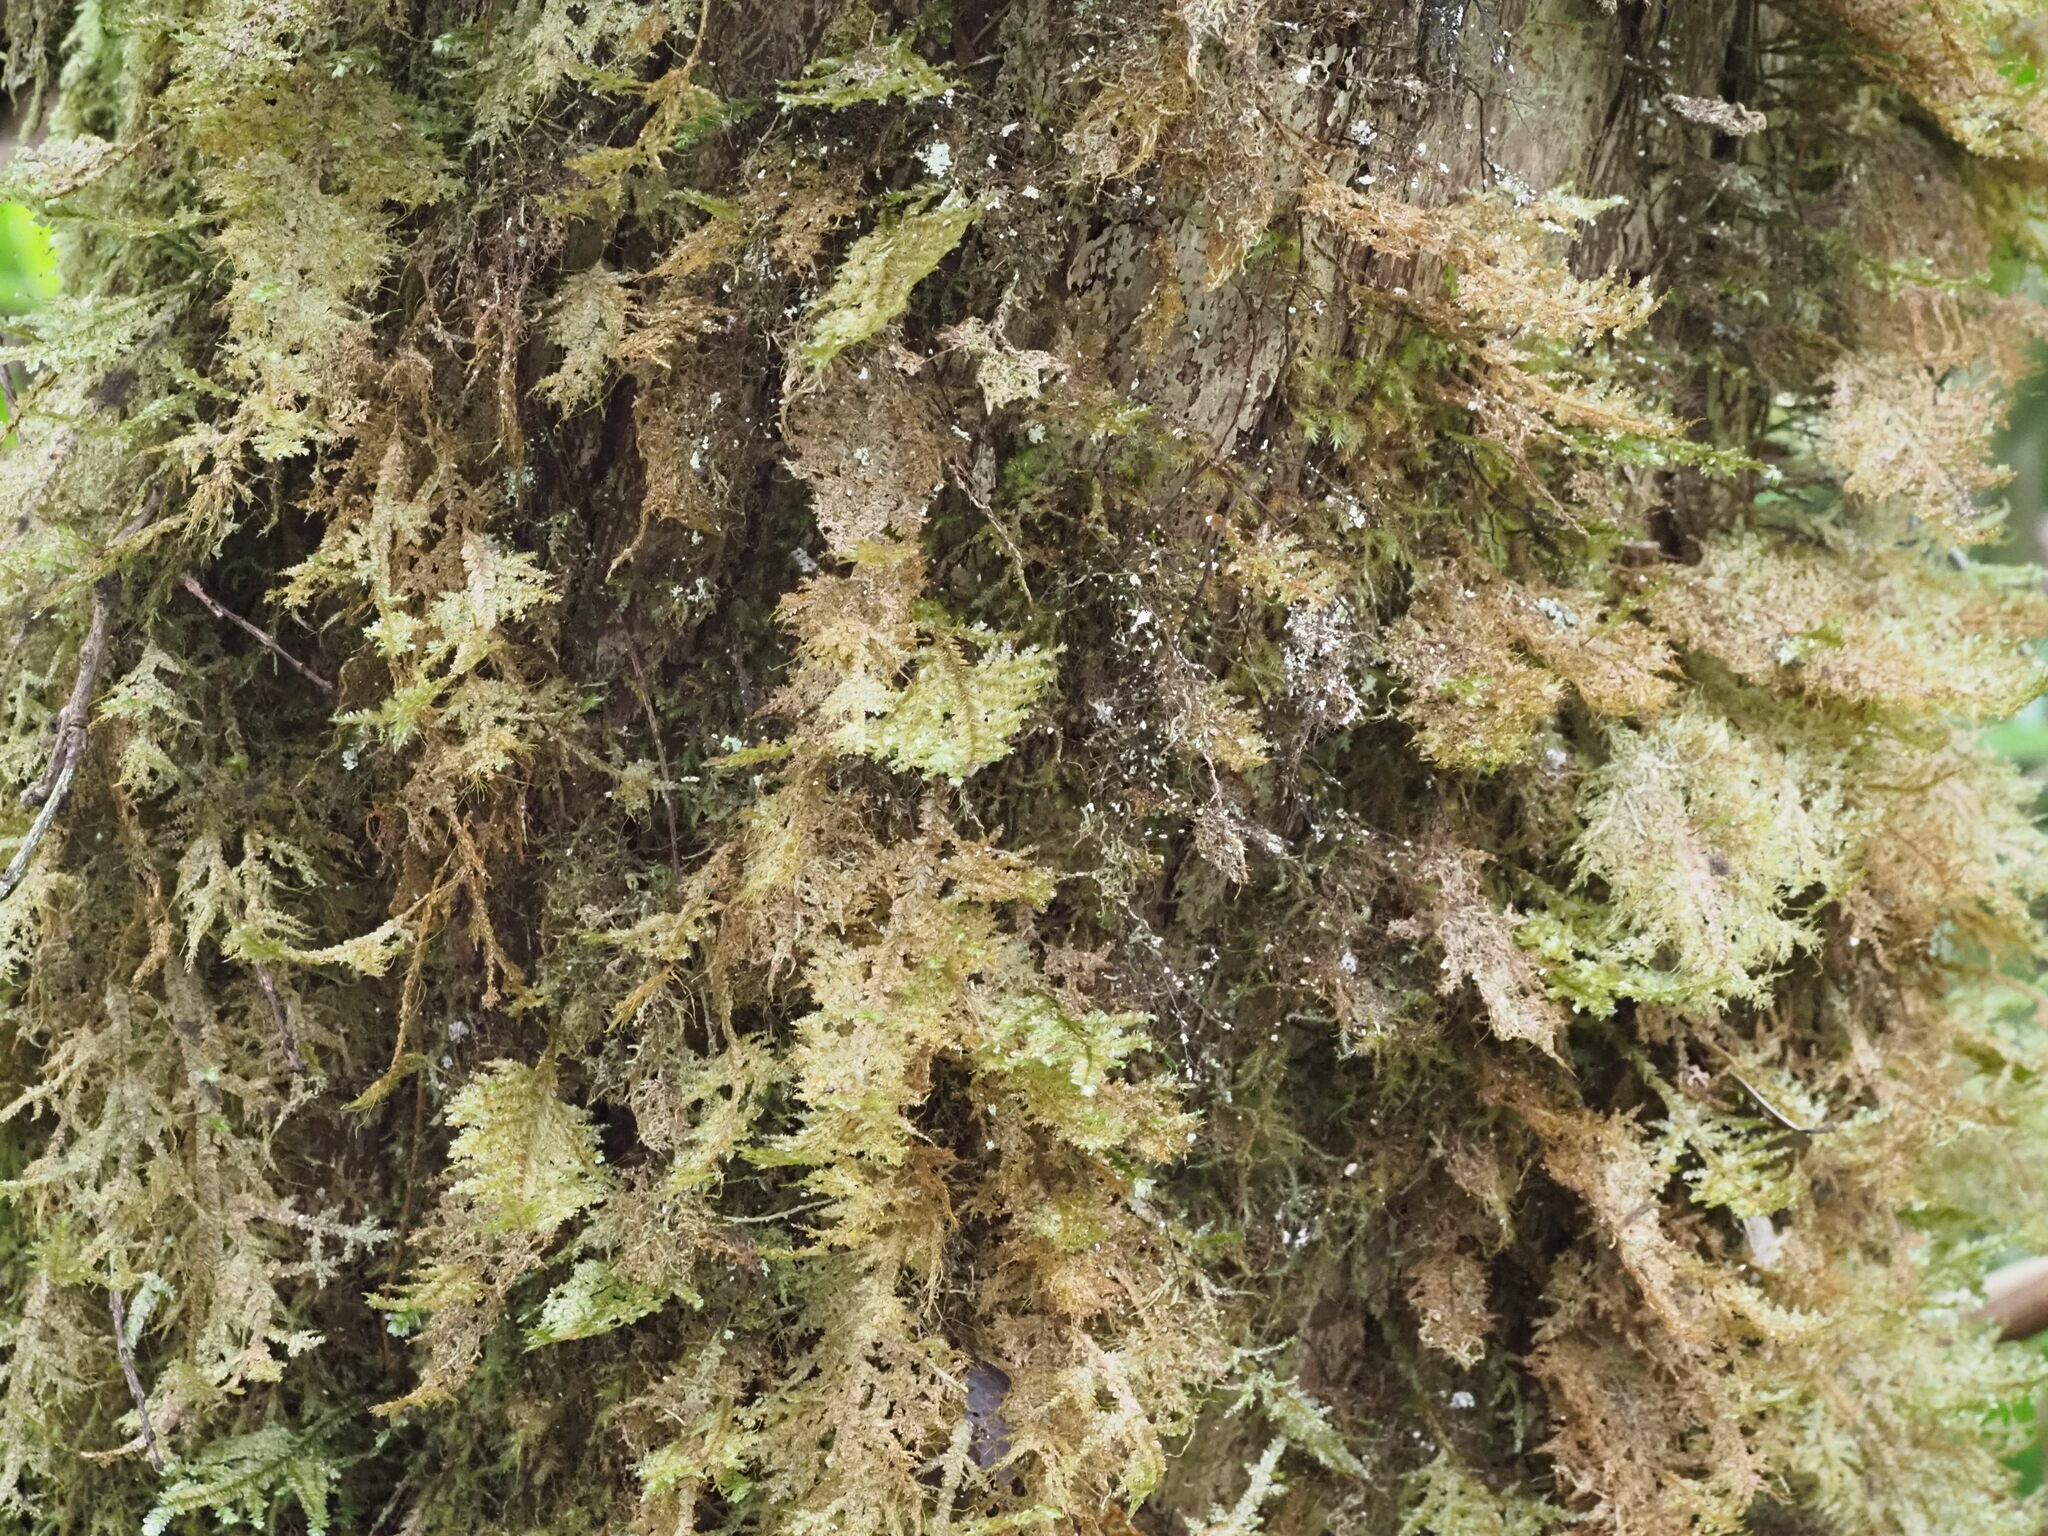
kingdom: Plantae
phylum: Bryophyta
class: Bryopsida
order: Hypnales
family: Neckeraceae
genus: Homaliodendron
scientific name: Homaliodendron flabellatum
